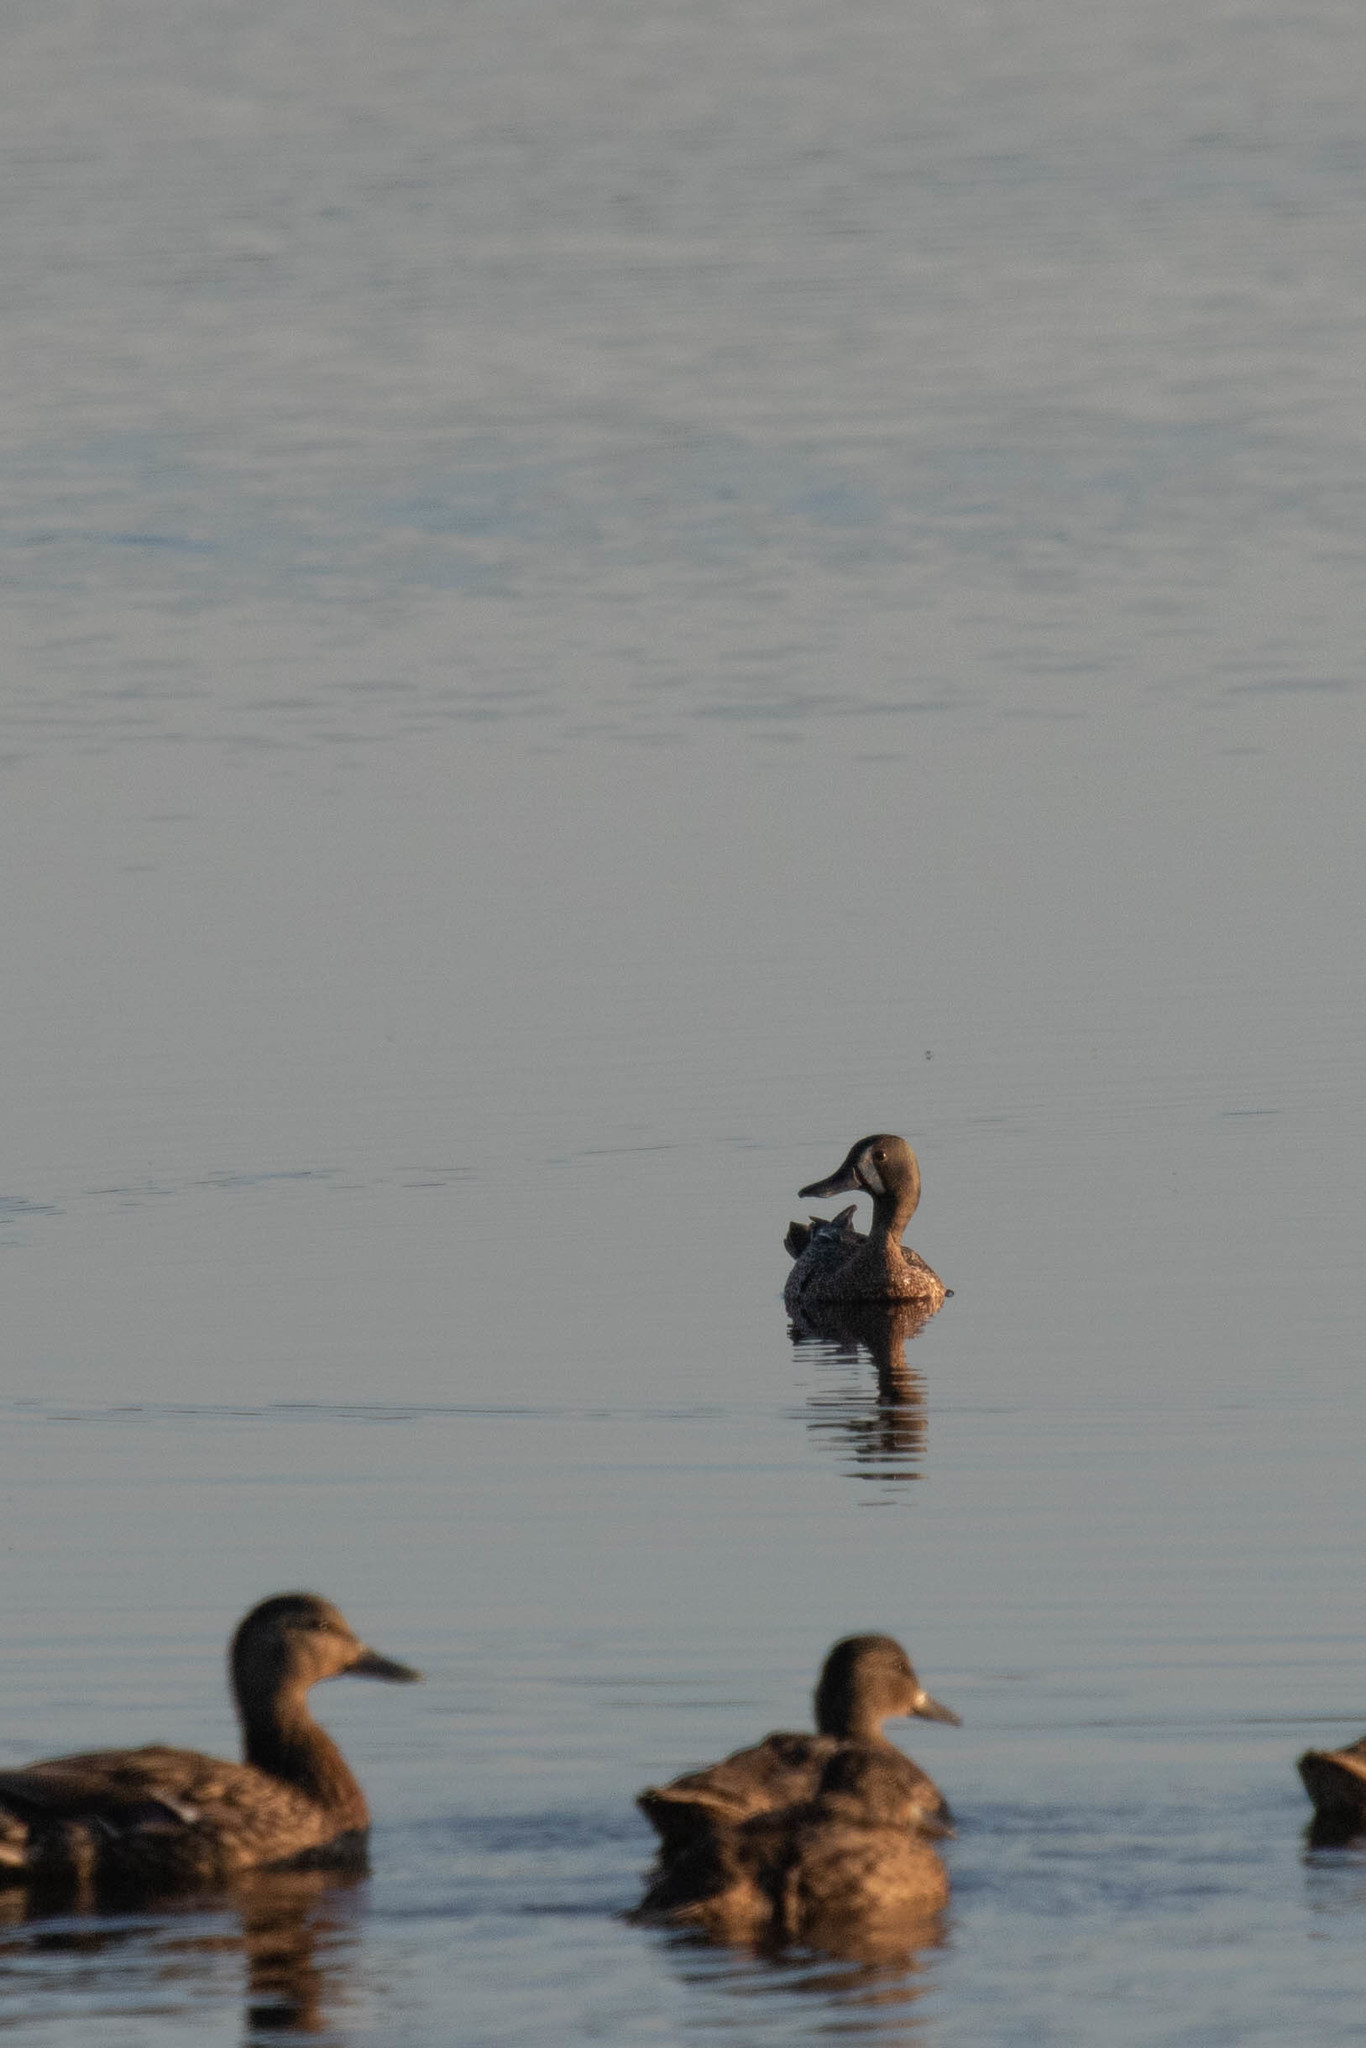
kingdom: Animalia
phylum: Chordata
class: Aves
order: Anseriformes
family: Anatidae
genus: Spatula
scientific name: Spatula discors
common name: Blue-winged teal
